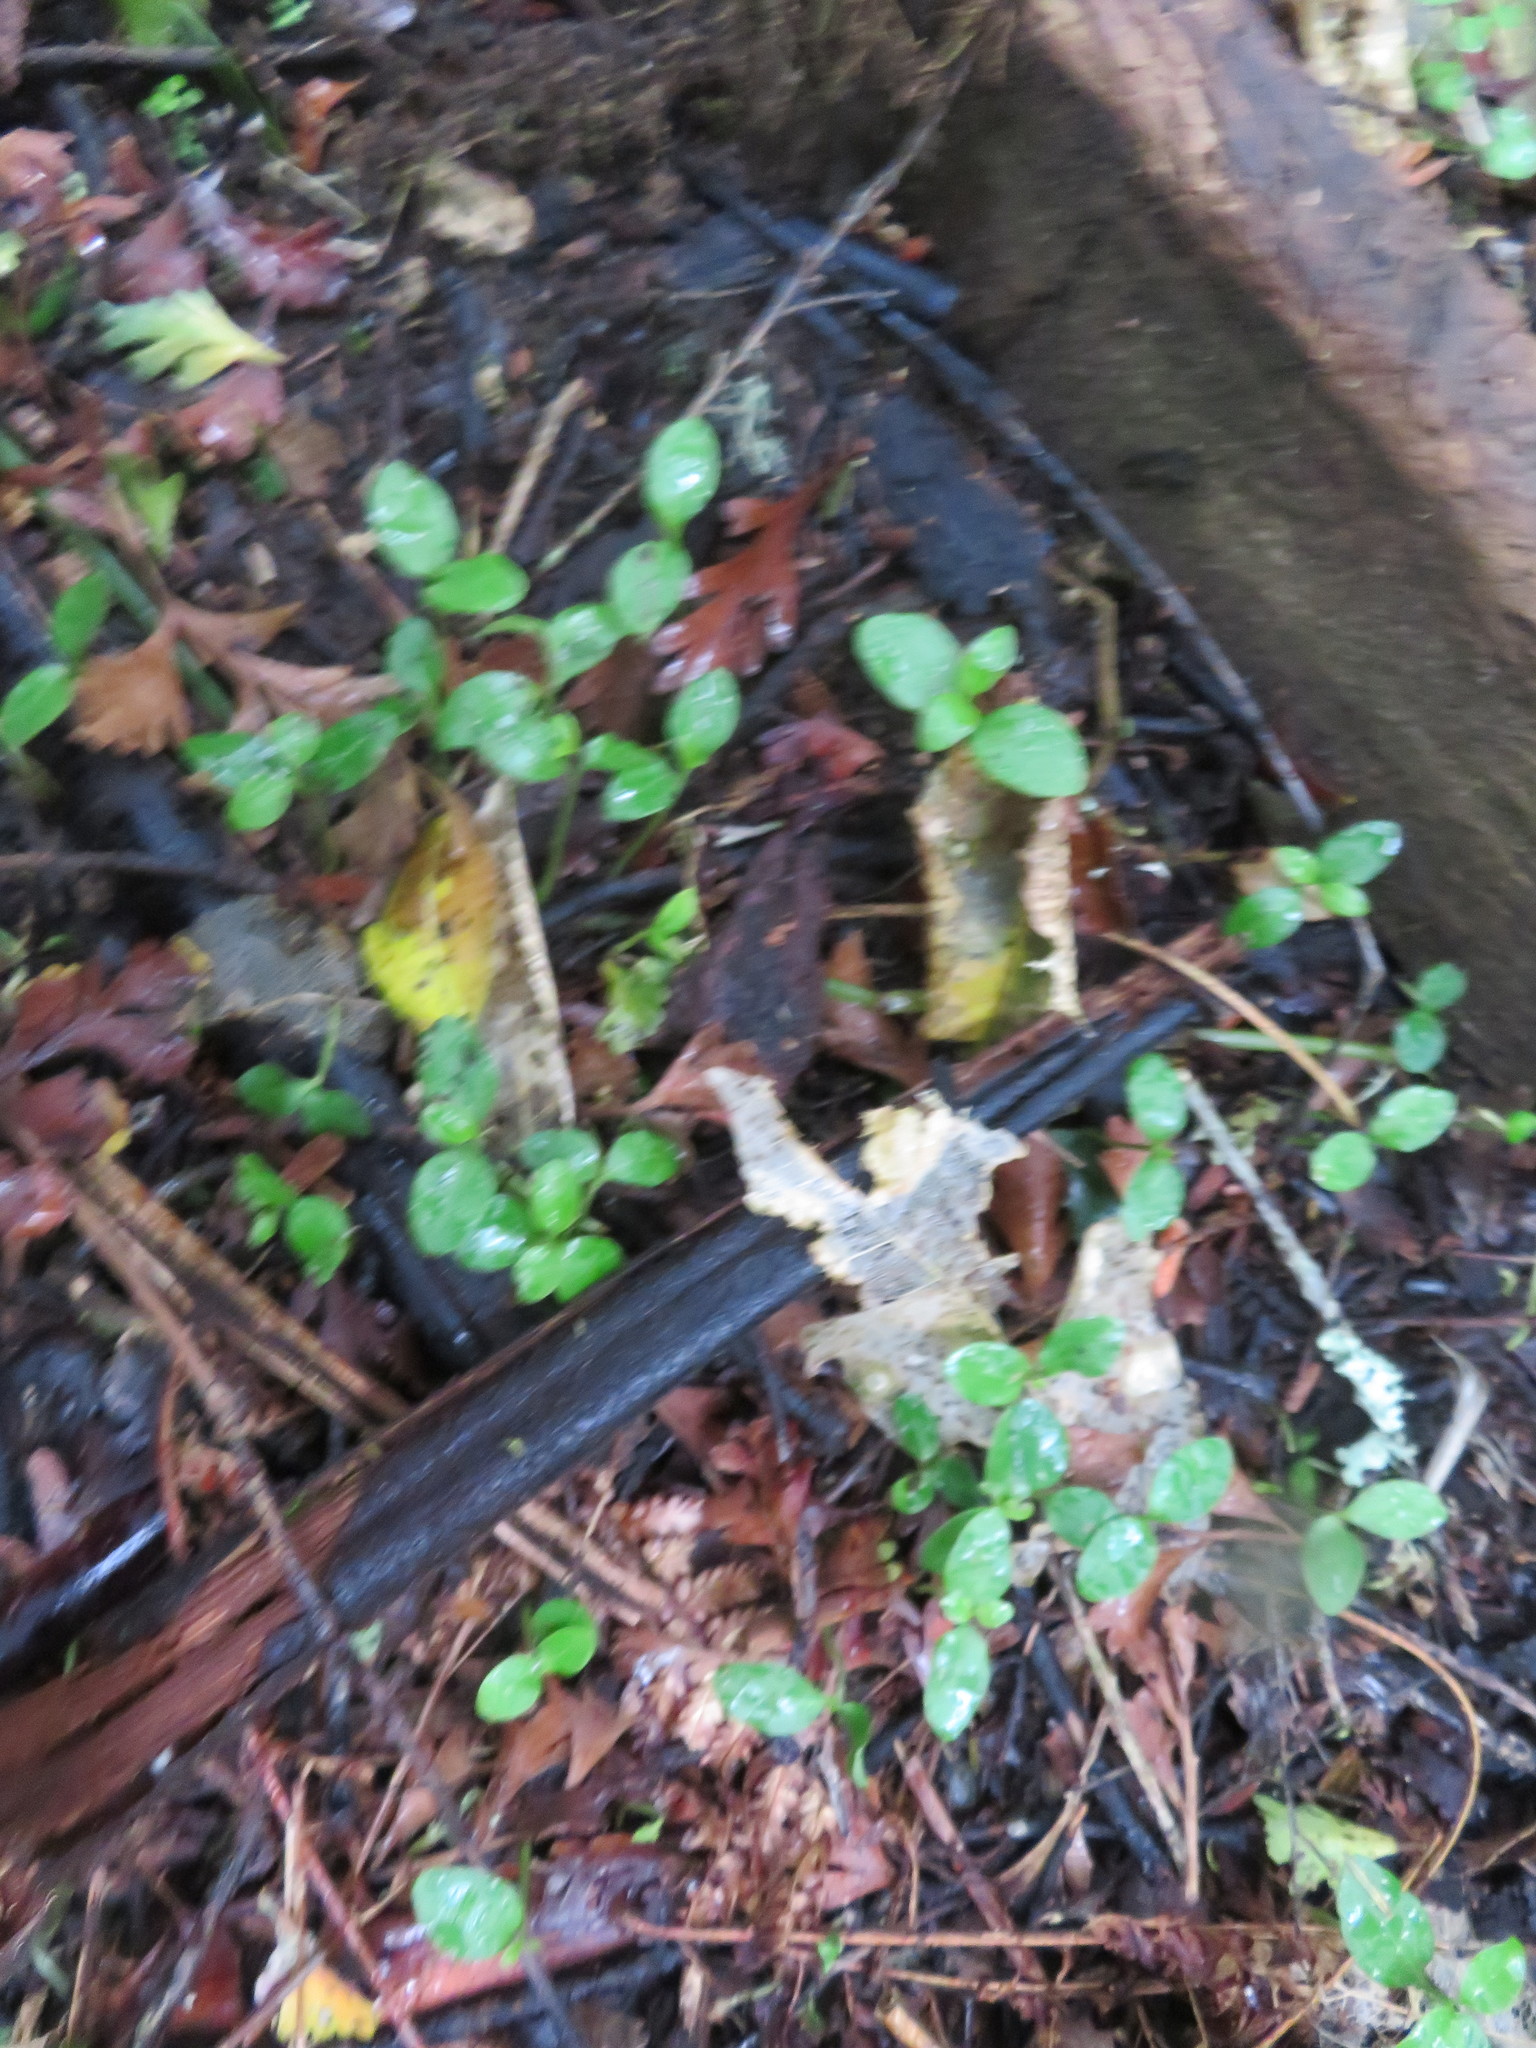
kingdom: Plantae
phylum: Tracheophyta
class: Magnoliopsida
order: Lamiales
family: Oleaceae
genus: Ligustrum
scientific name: Ligustrum lucidum
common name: Glossy privet
